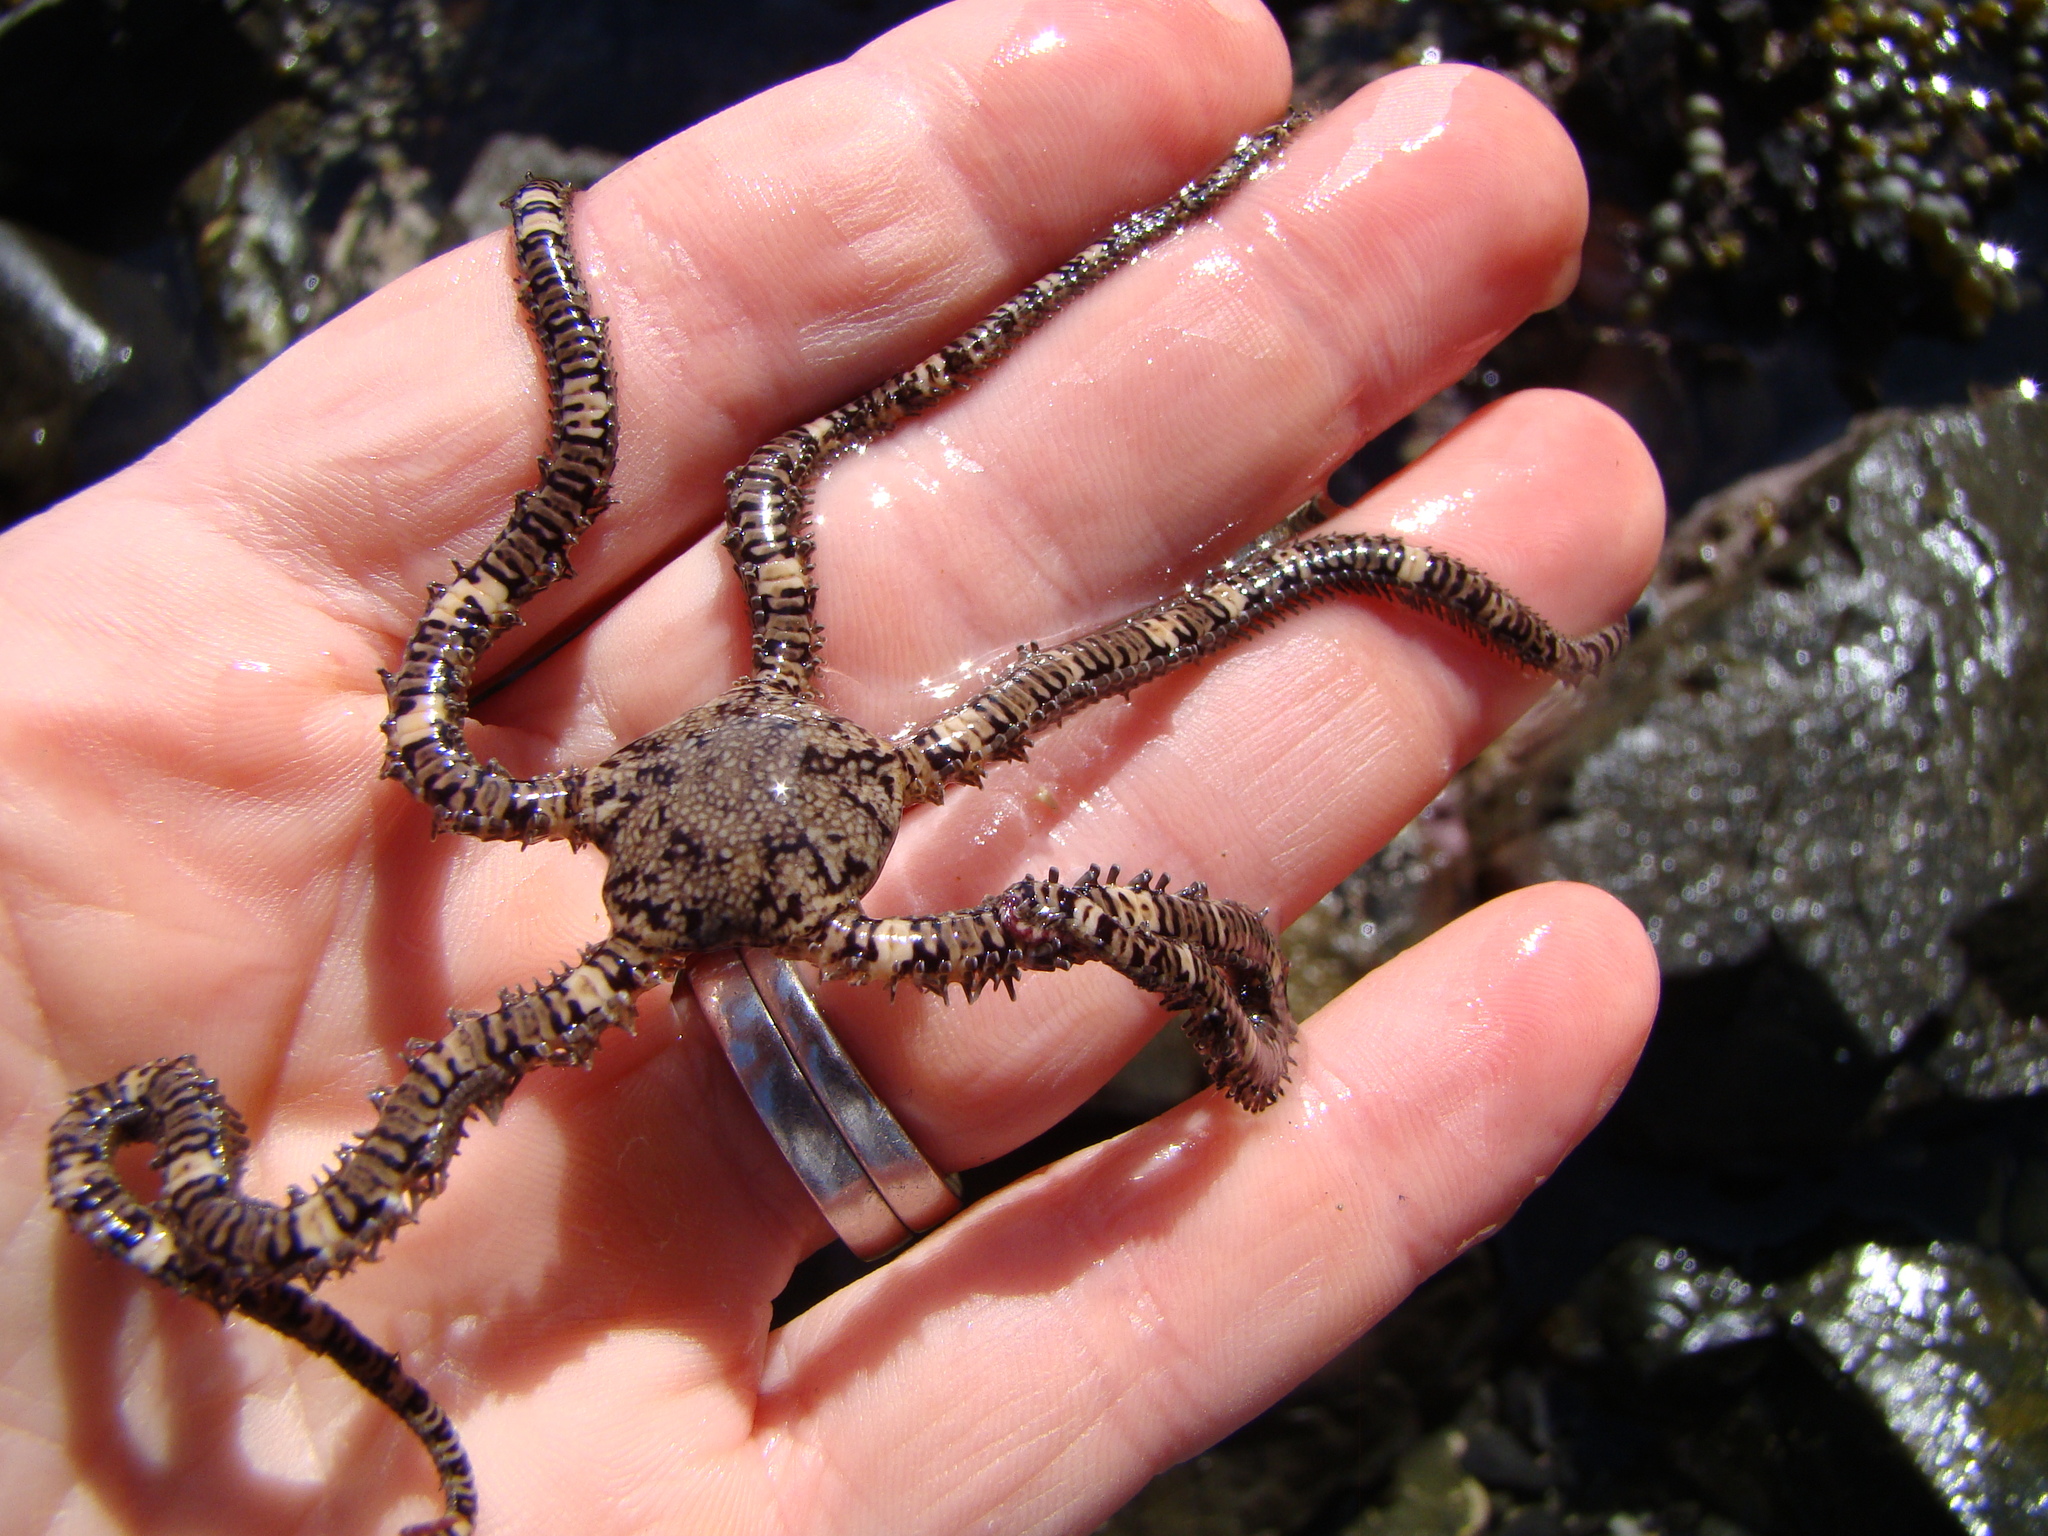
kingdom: Animalia
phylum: Echinodermata
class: Ophiuroidea
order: Amphilepidida
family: Ophionereididae
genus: Ophionereis
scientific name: Ophionereis fasciata
